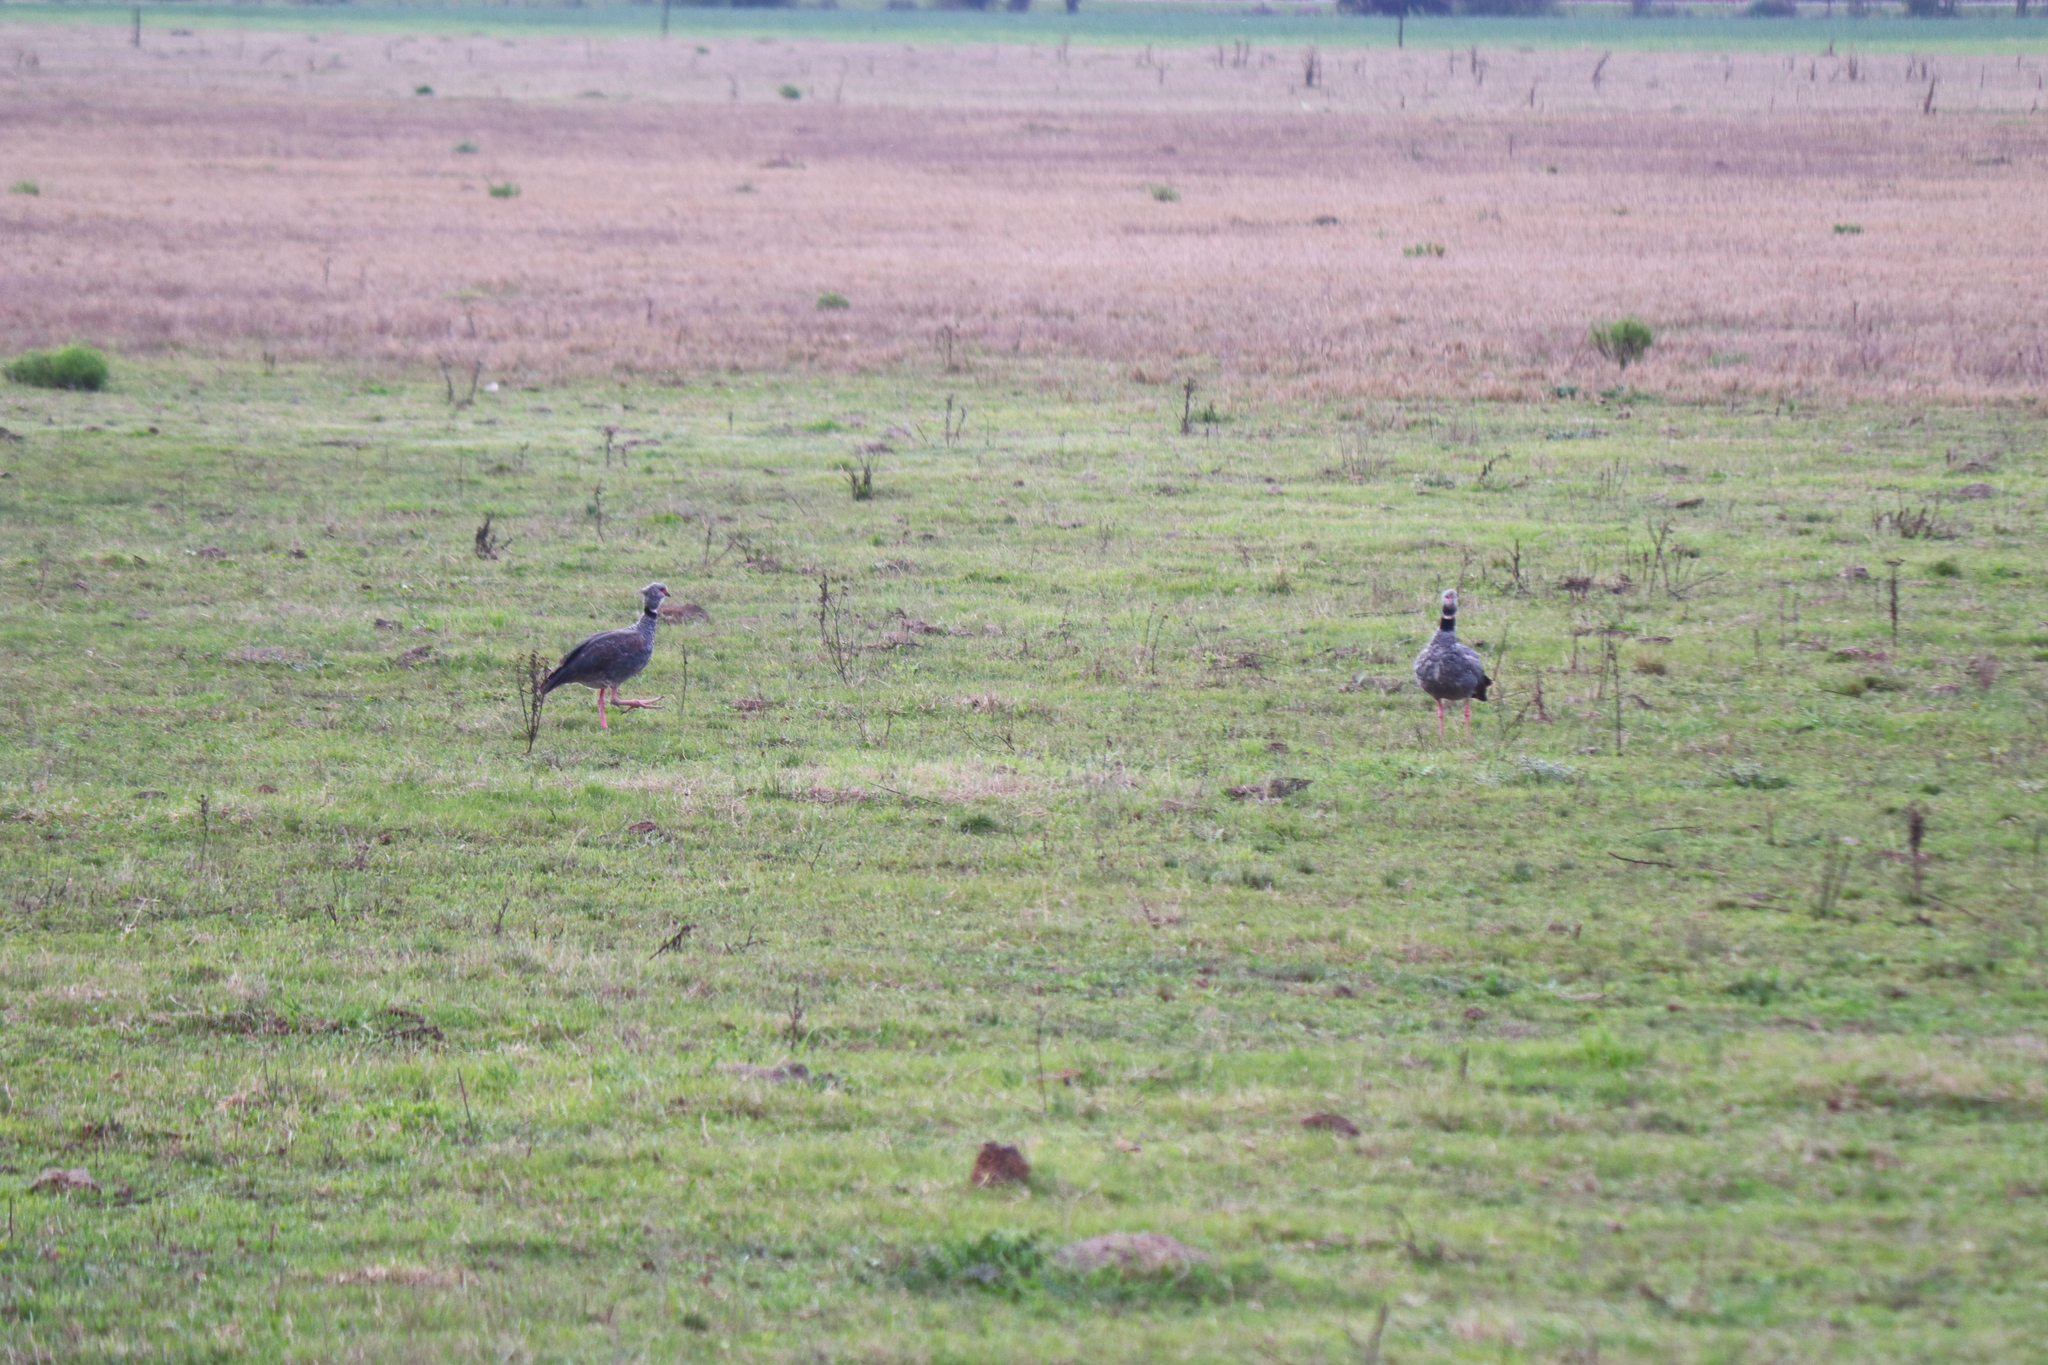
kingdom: Animalia
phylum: Chordata
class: Aves
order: Anseriformes
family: Anhimidae
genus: Chauna
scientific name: Chauna torquata
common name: Southern screamer
